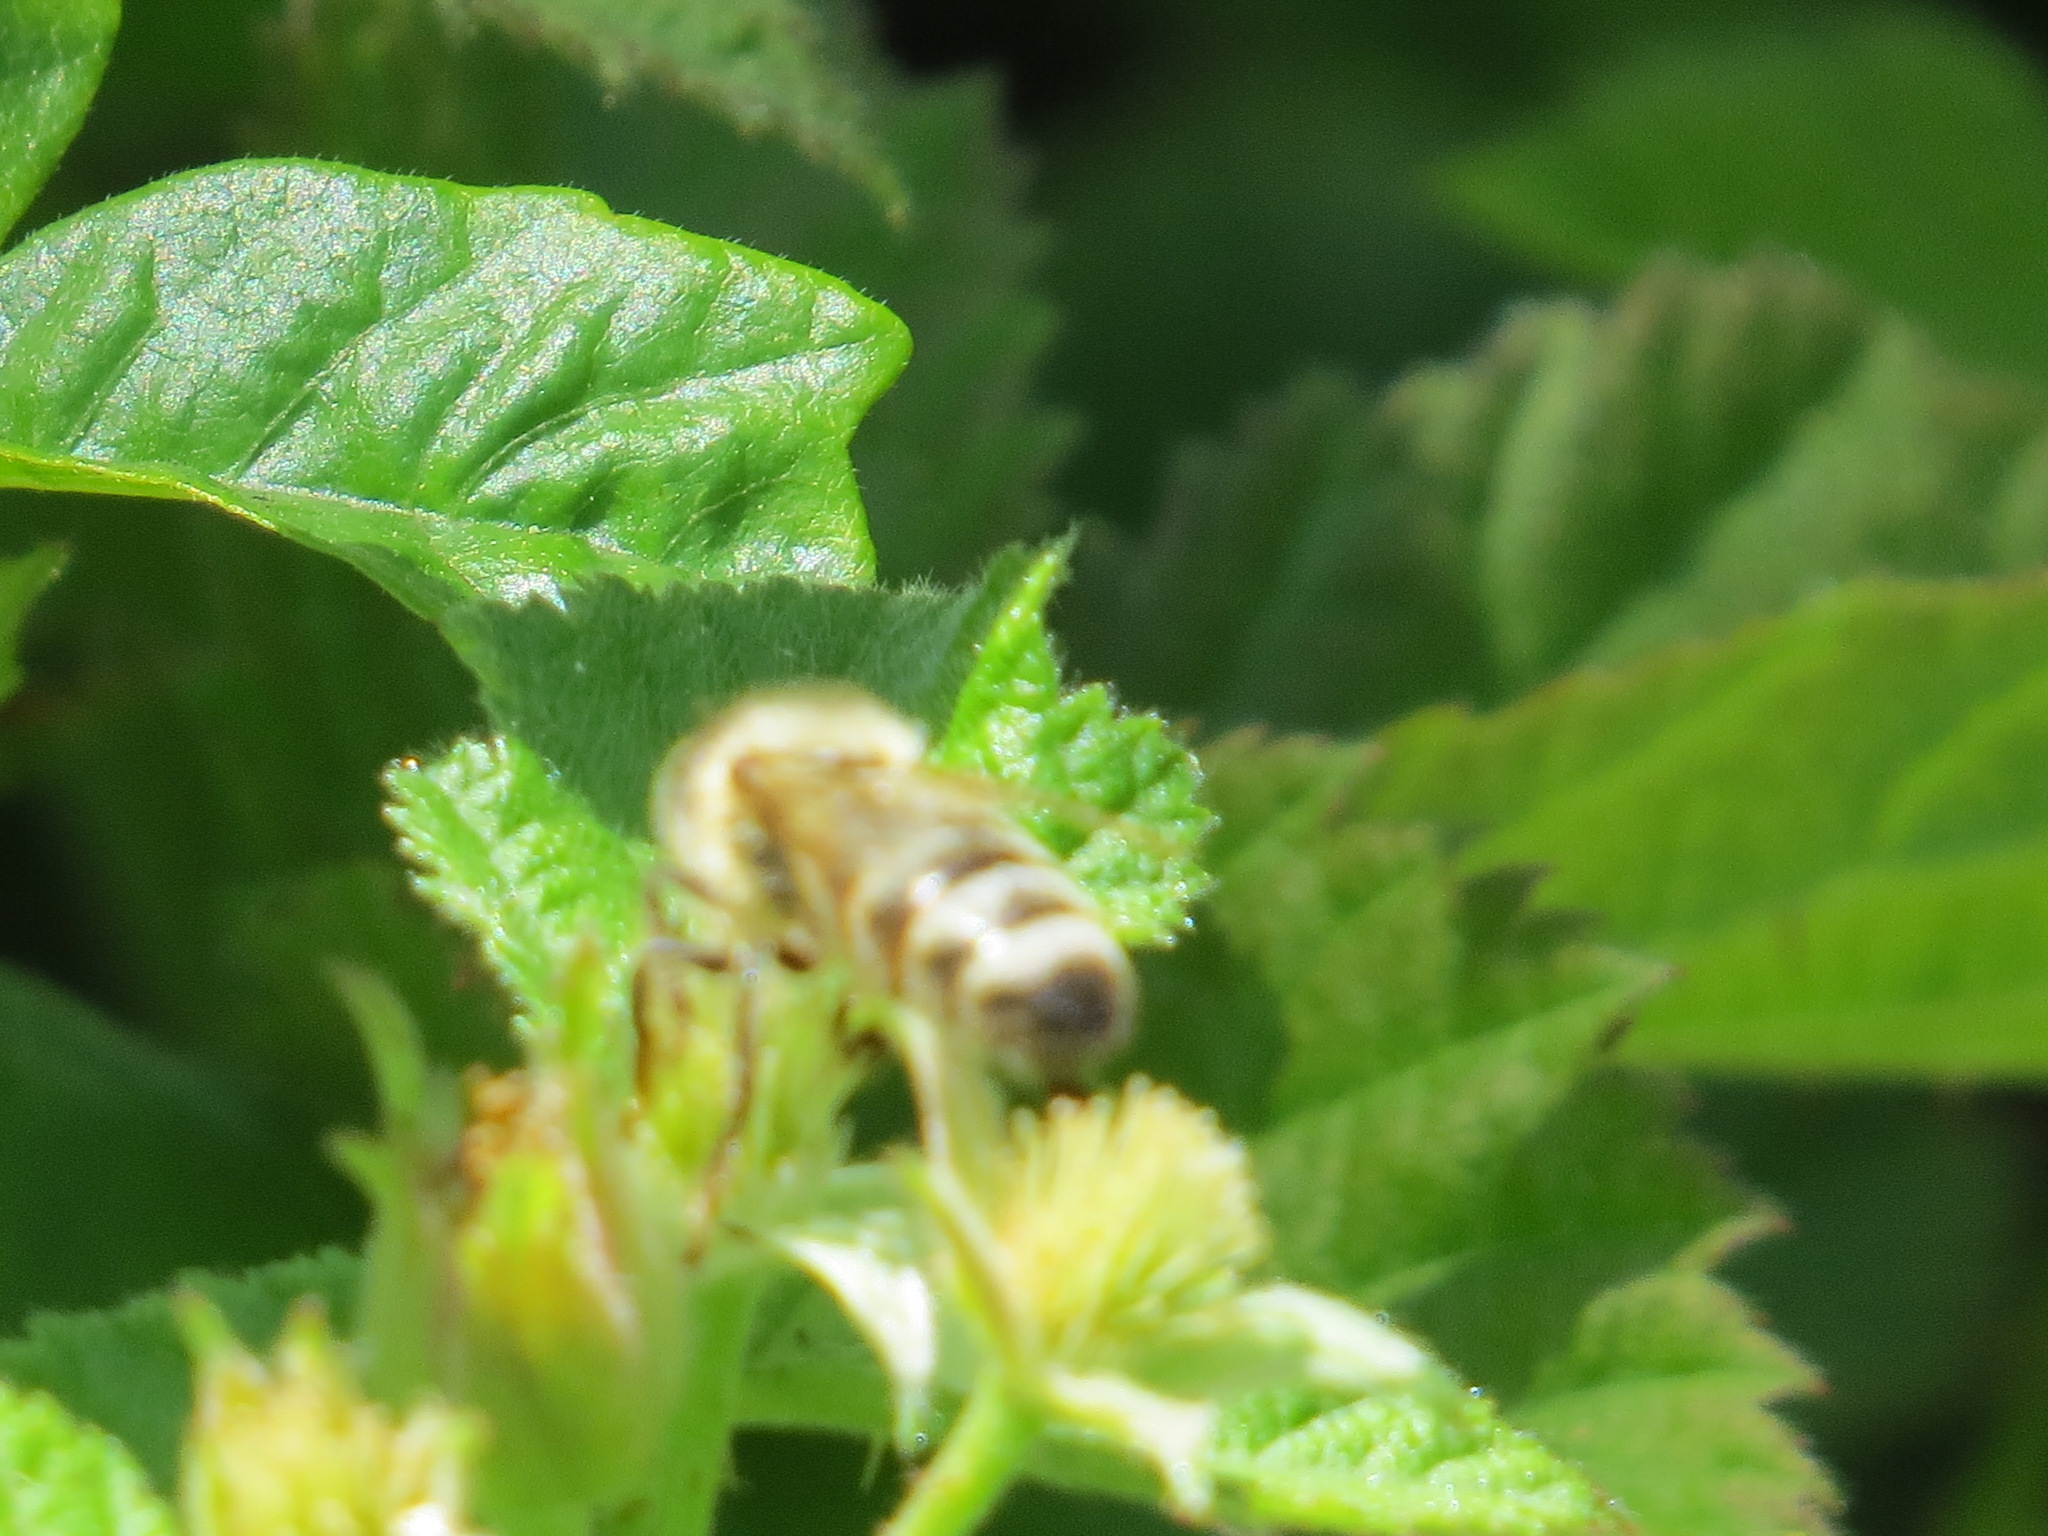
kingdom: Animalia
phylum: Arthropoda
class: Insecta
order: Hymenoptera
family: Apidae
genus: Apis
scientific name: Apis mellifera
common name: Honey bee
